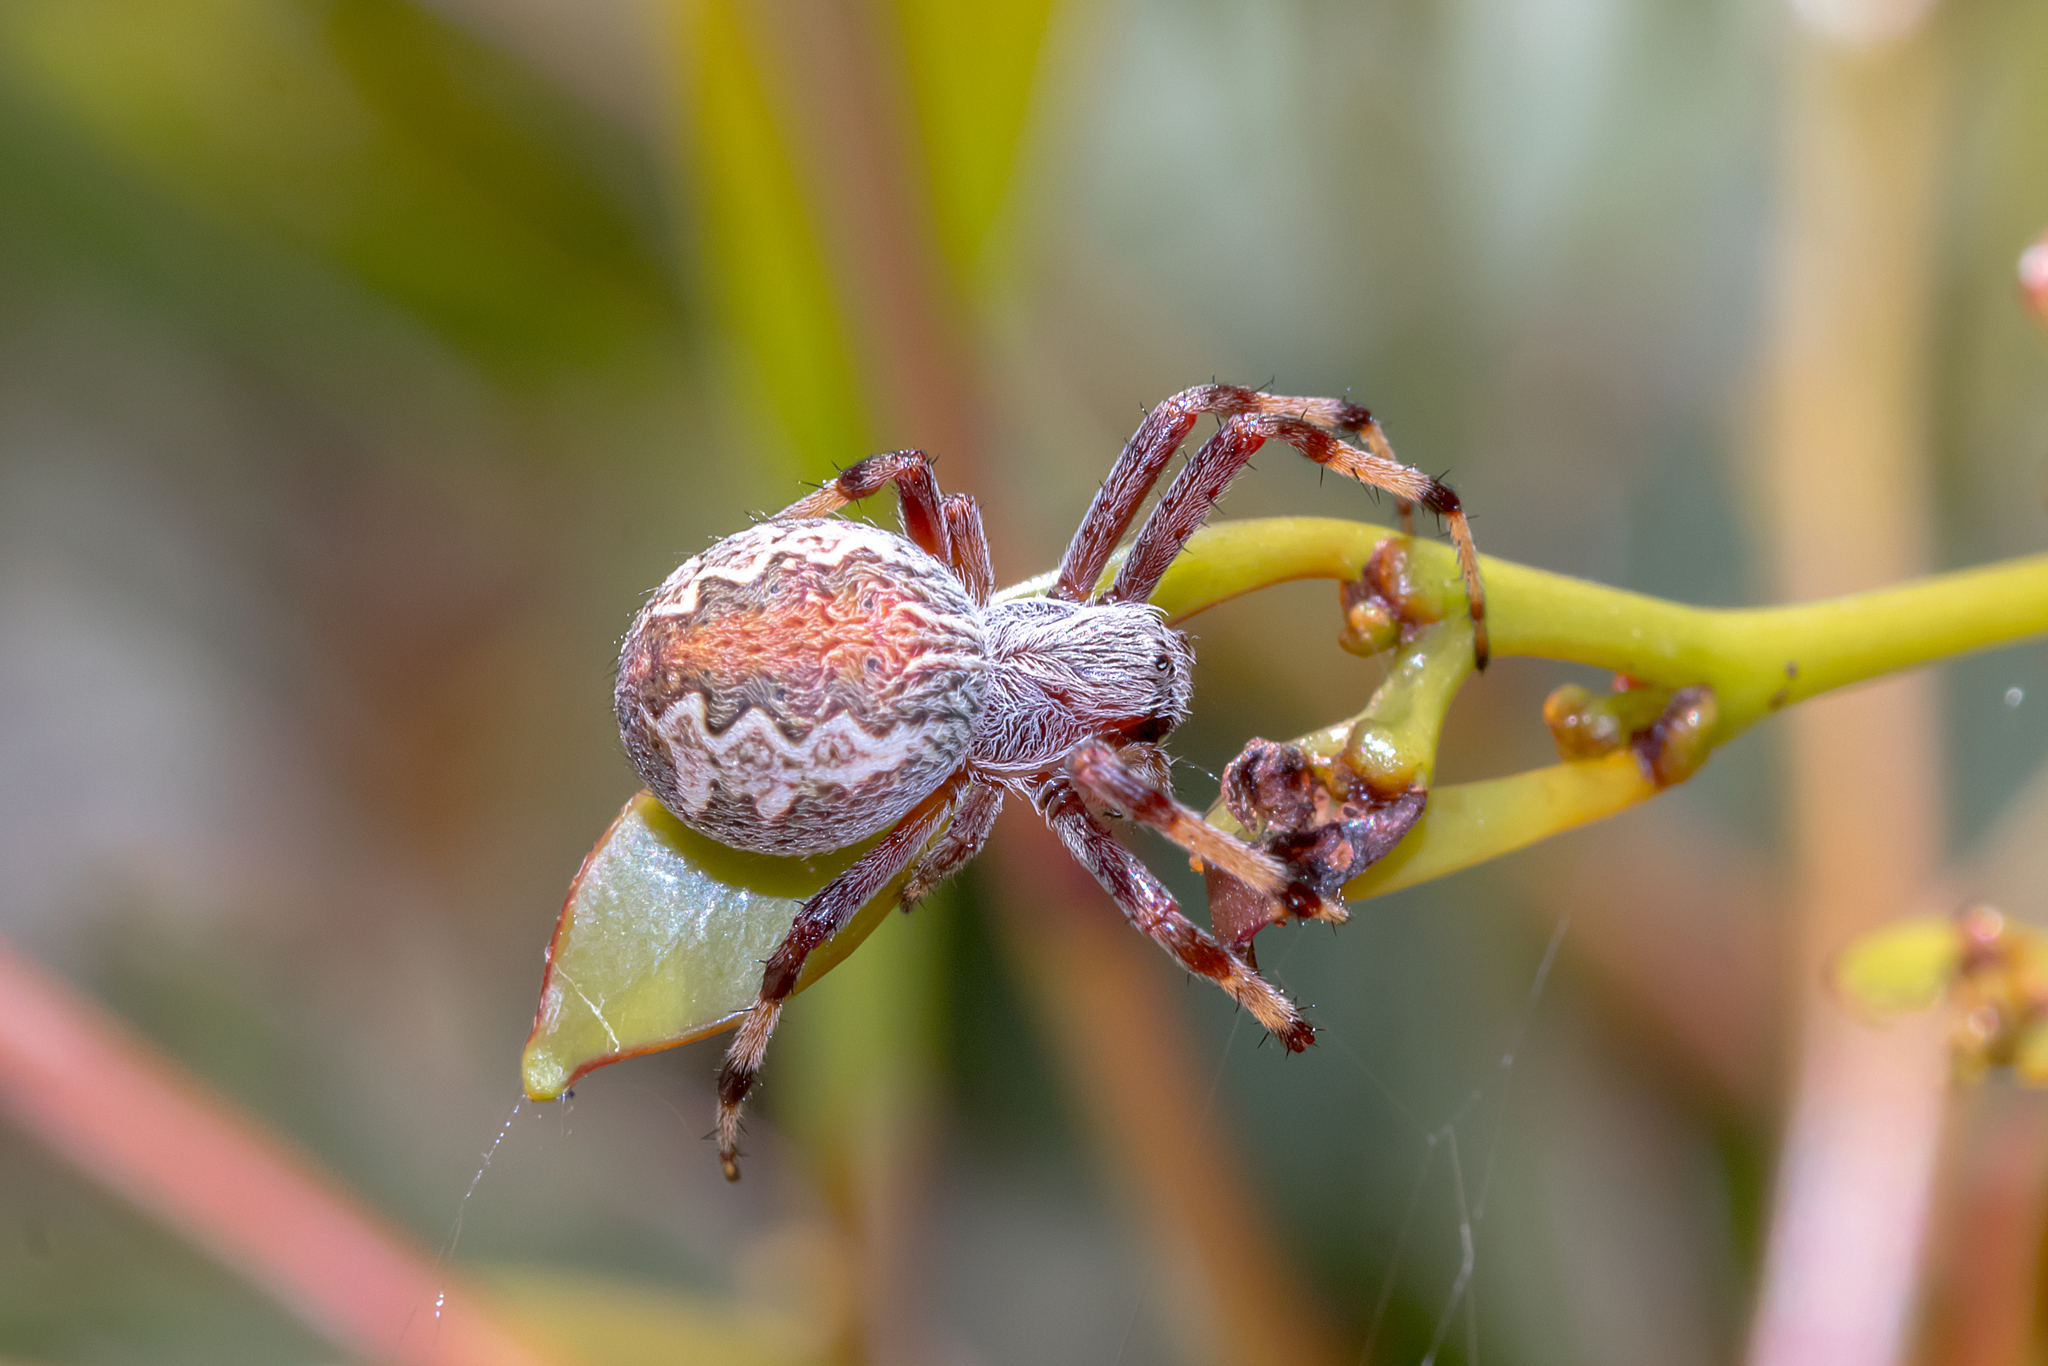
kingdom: Animalia
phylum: Arthropoda
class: Arachnida
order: Araneae
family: Araneidae
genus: Salsa
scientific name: Salsa fuliginata
